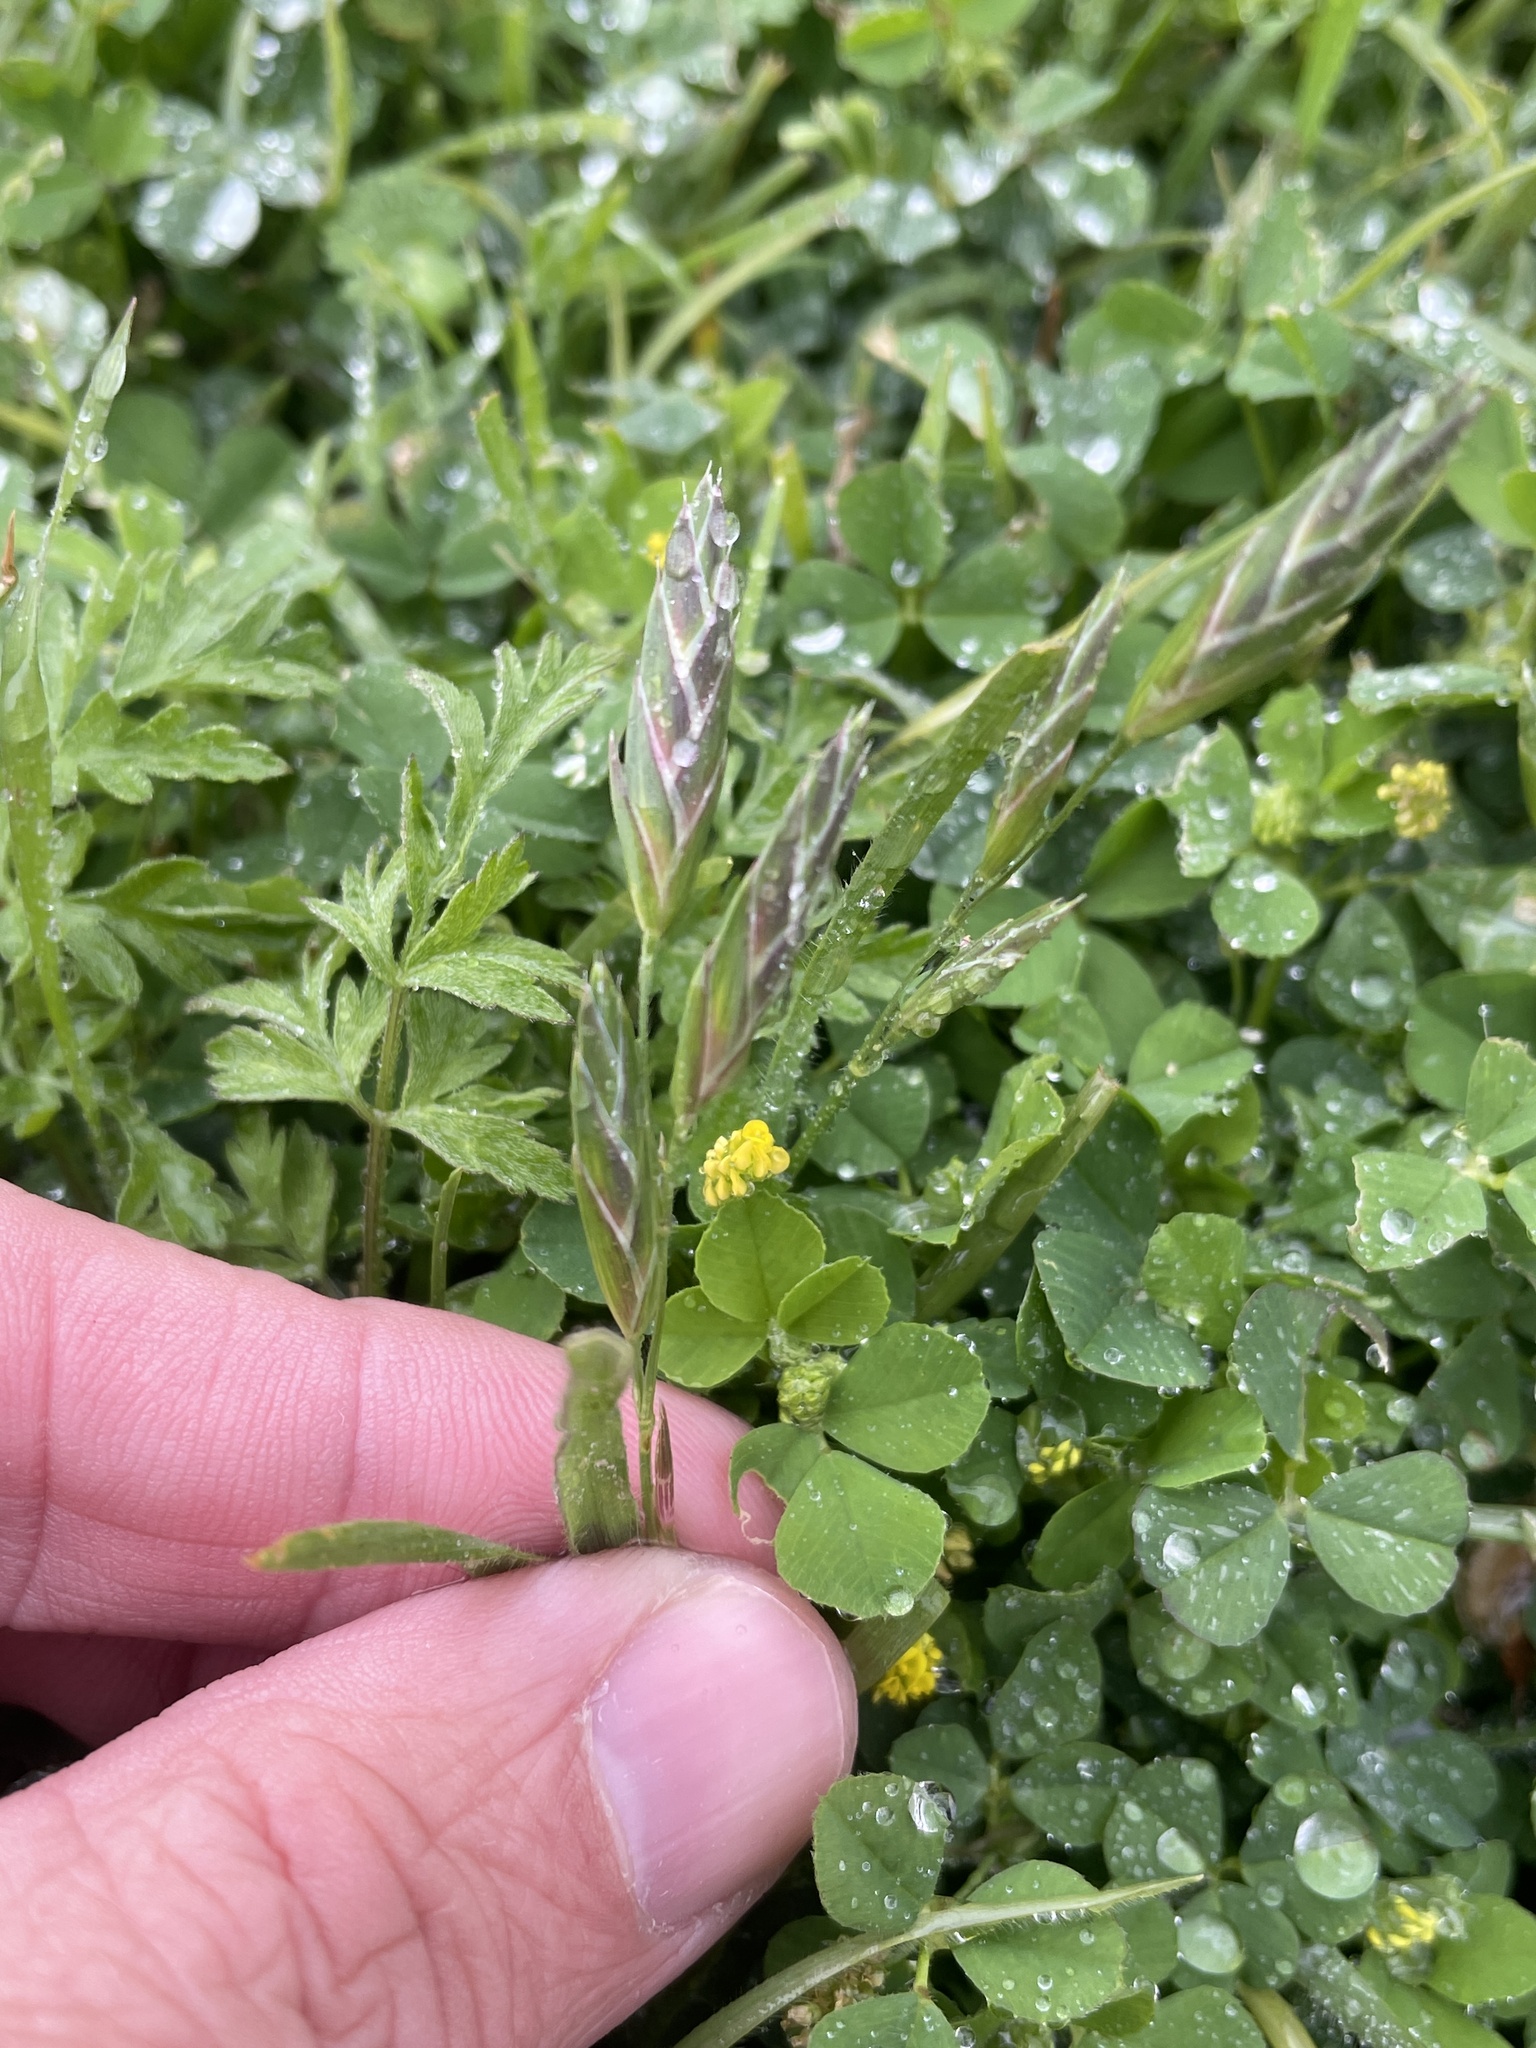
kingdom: Plantae
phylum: Tracheophyta
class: Liliopsida
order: Poales
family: Poaceae
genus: Bromus
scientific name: Bromus catharticus
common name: Rescuegrass
